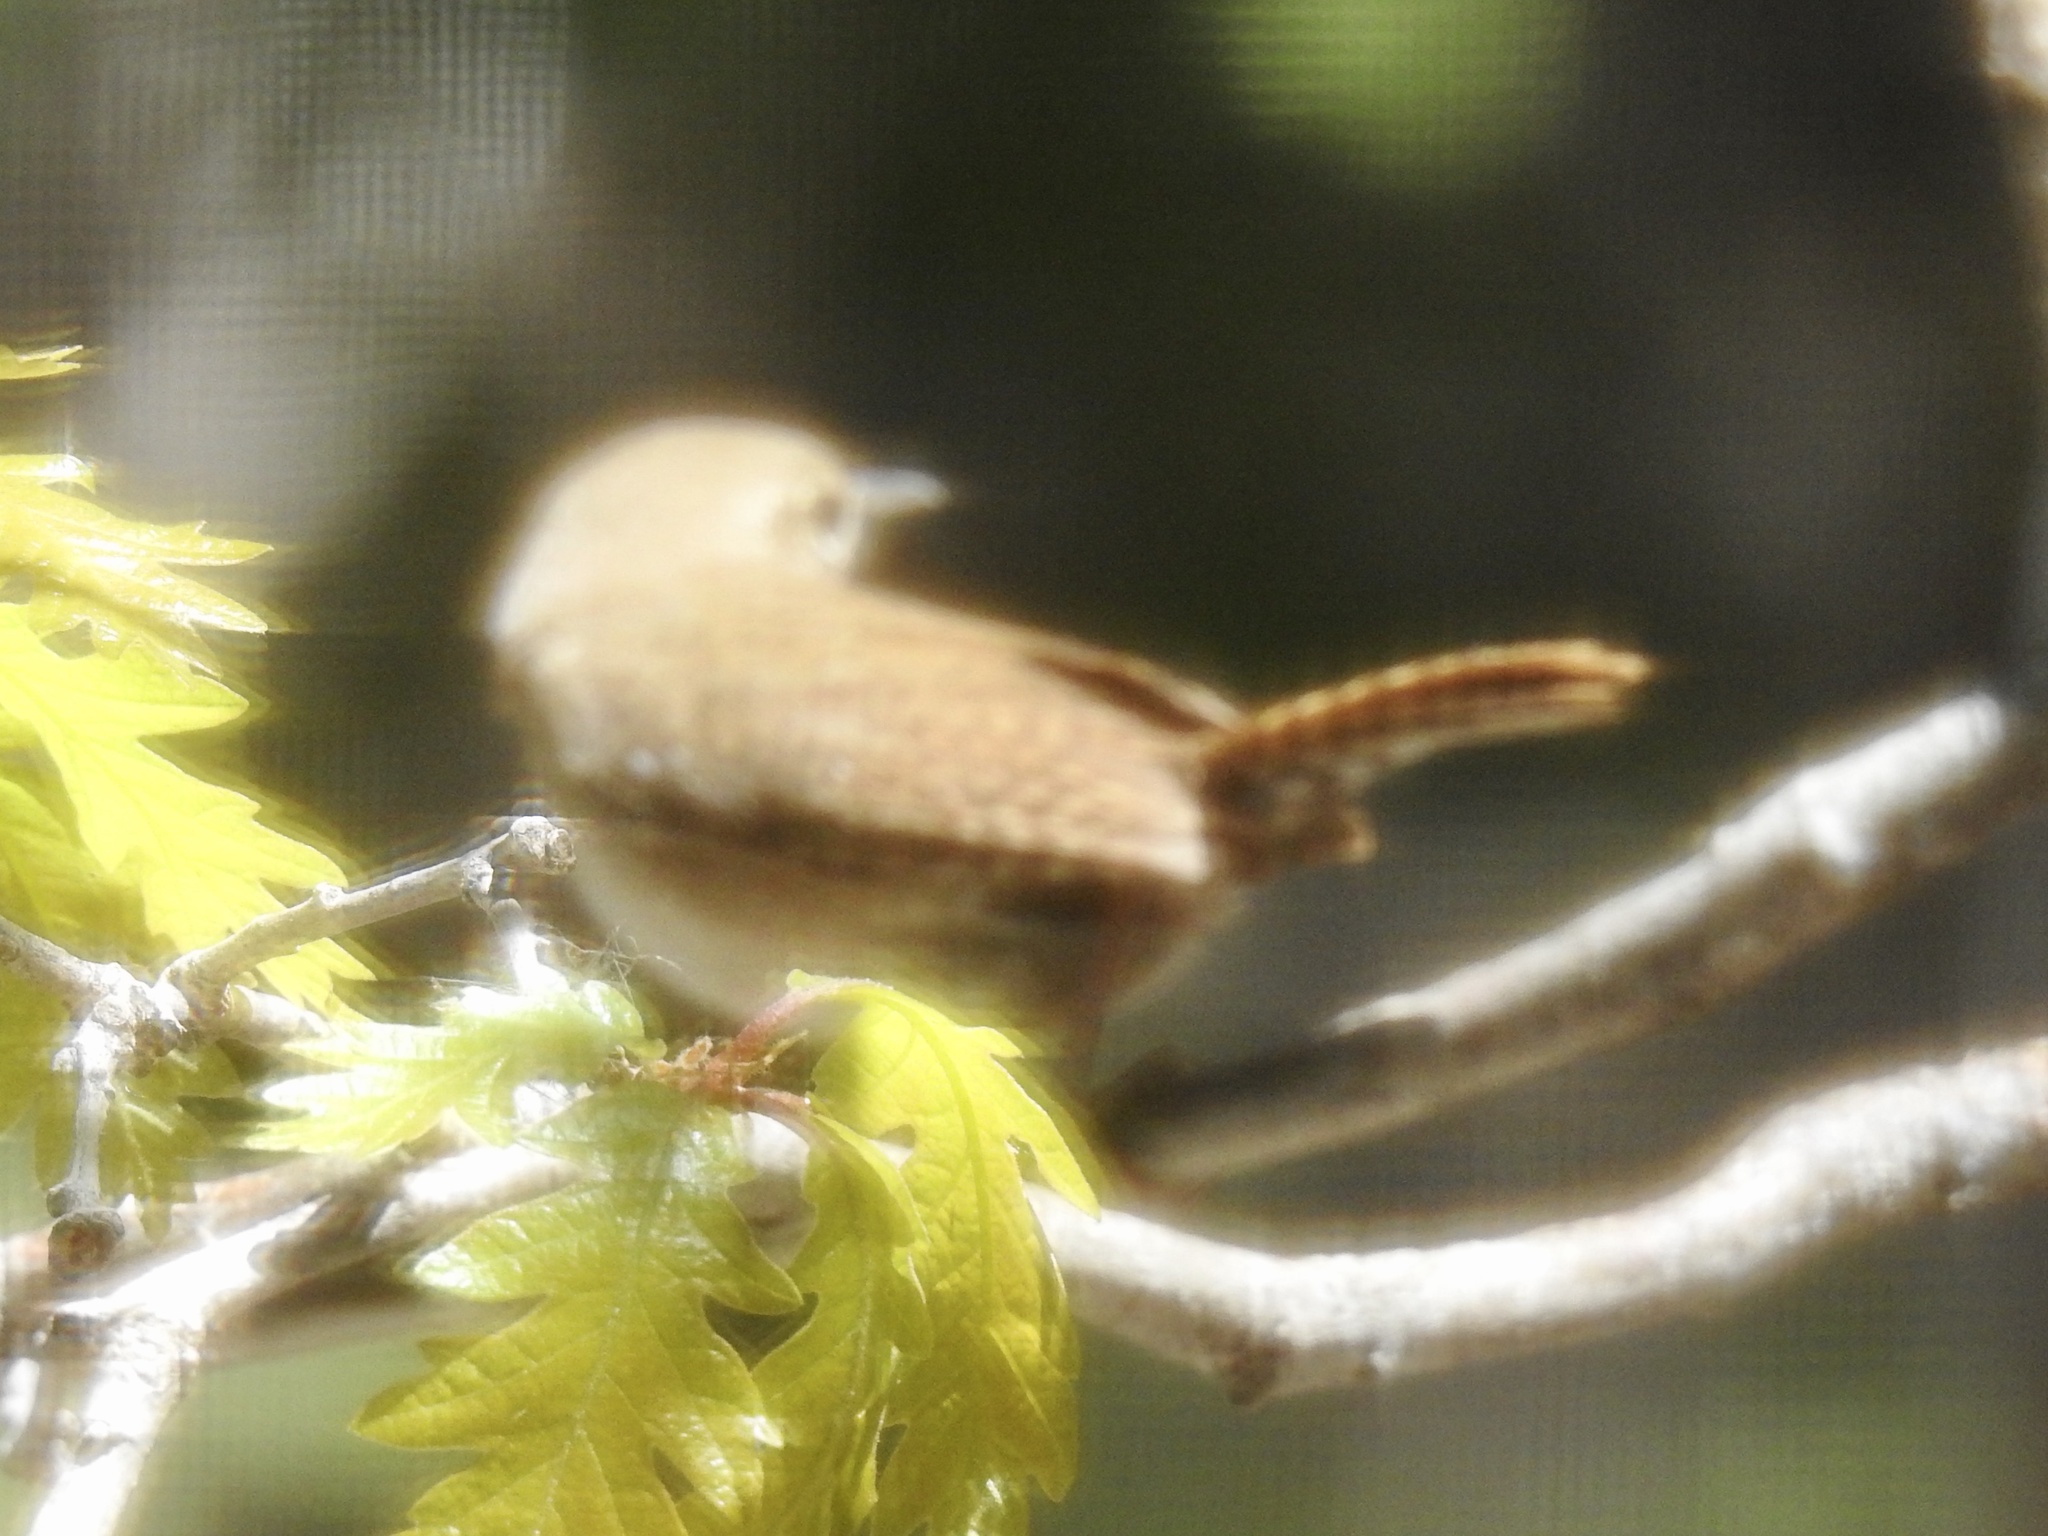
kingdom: Animalia
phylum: Chordata
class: Aves
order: Passeriformes
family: Troglodytidae
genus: Troglodytes
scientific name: Troglodytes aedon
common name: House wren
